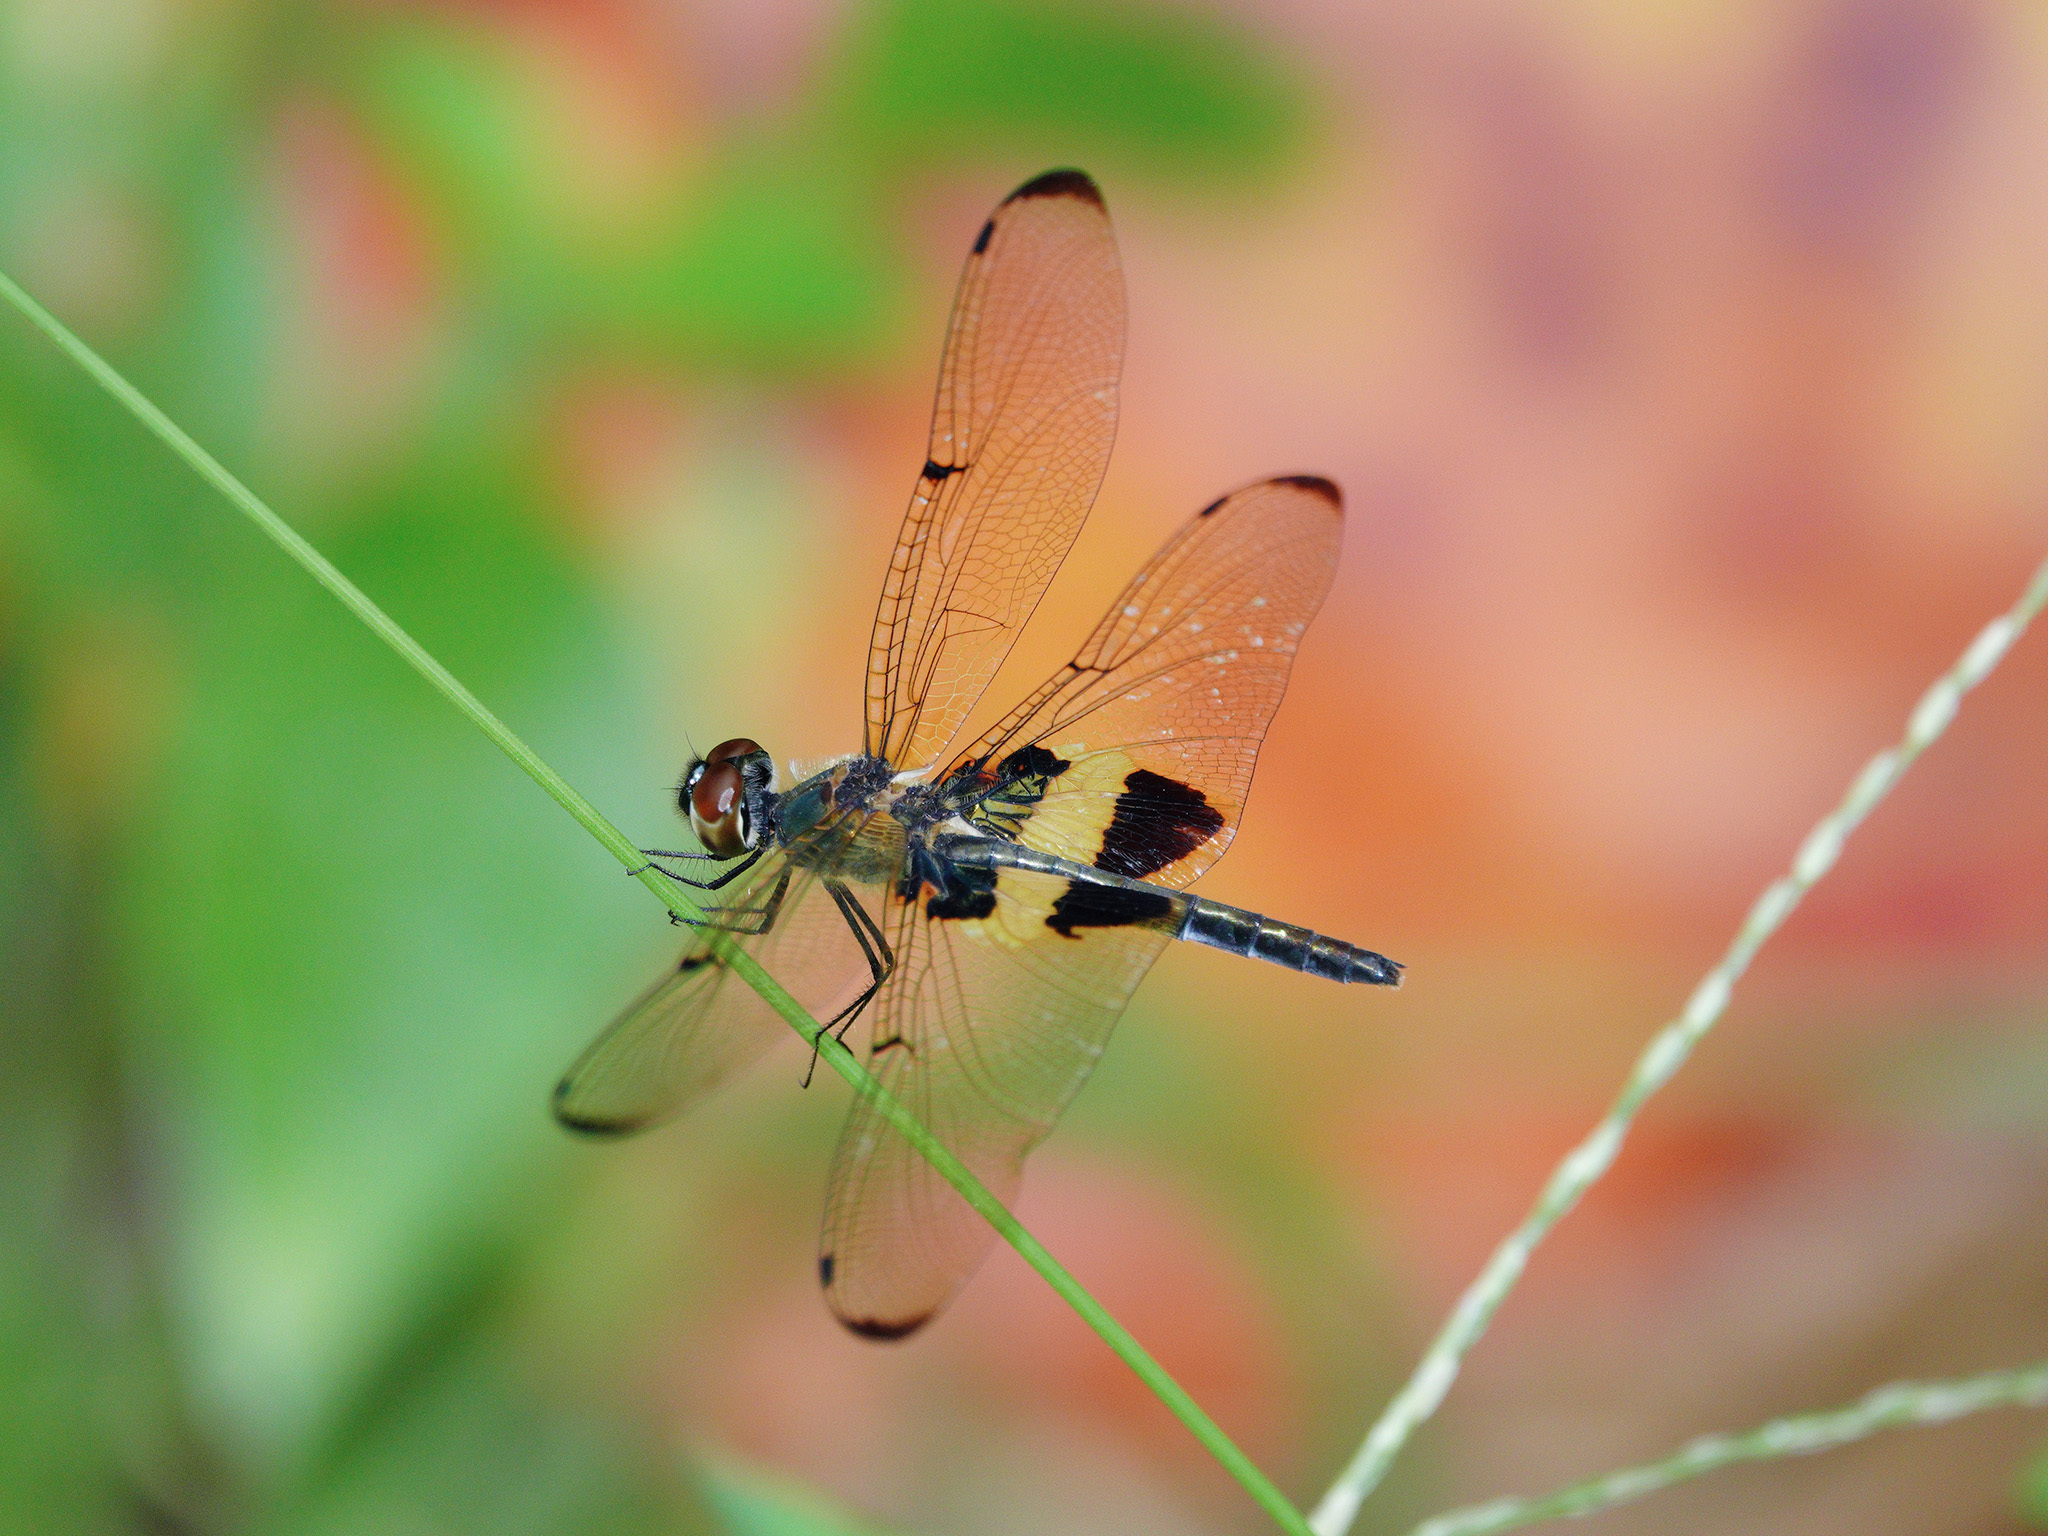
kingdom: Animalia
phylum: Arthropoda
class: Insecta
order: Odonata
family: Libellulidae
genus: Rhyothemis
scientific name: Rhyothemis phyllis
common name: Yellow-barred flutterer
